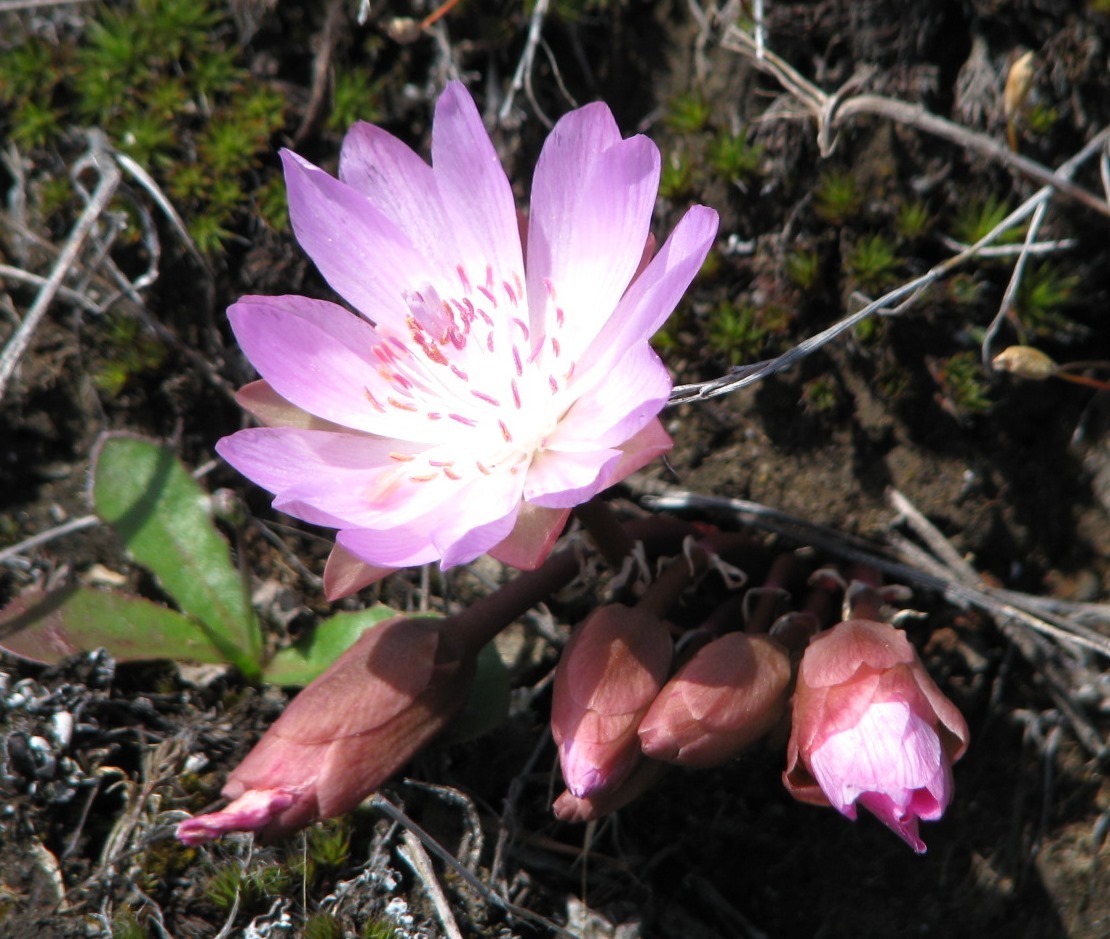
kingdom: Plantae
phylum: Tracheophyta
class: Magnoliopsida
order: Caryophyllales
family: Montiaceae
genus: Lewisia
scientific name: Lewisia rediviva
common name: Bitter-root
